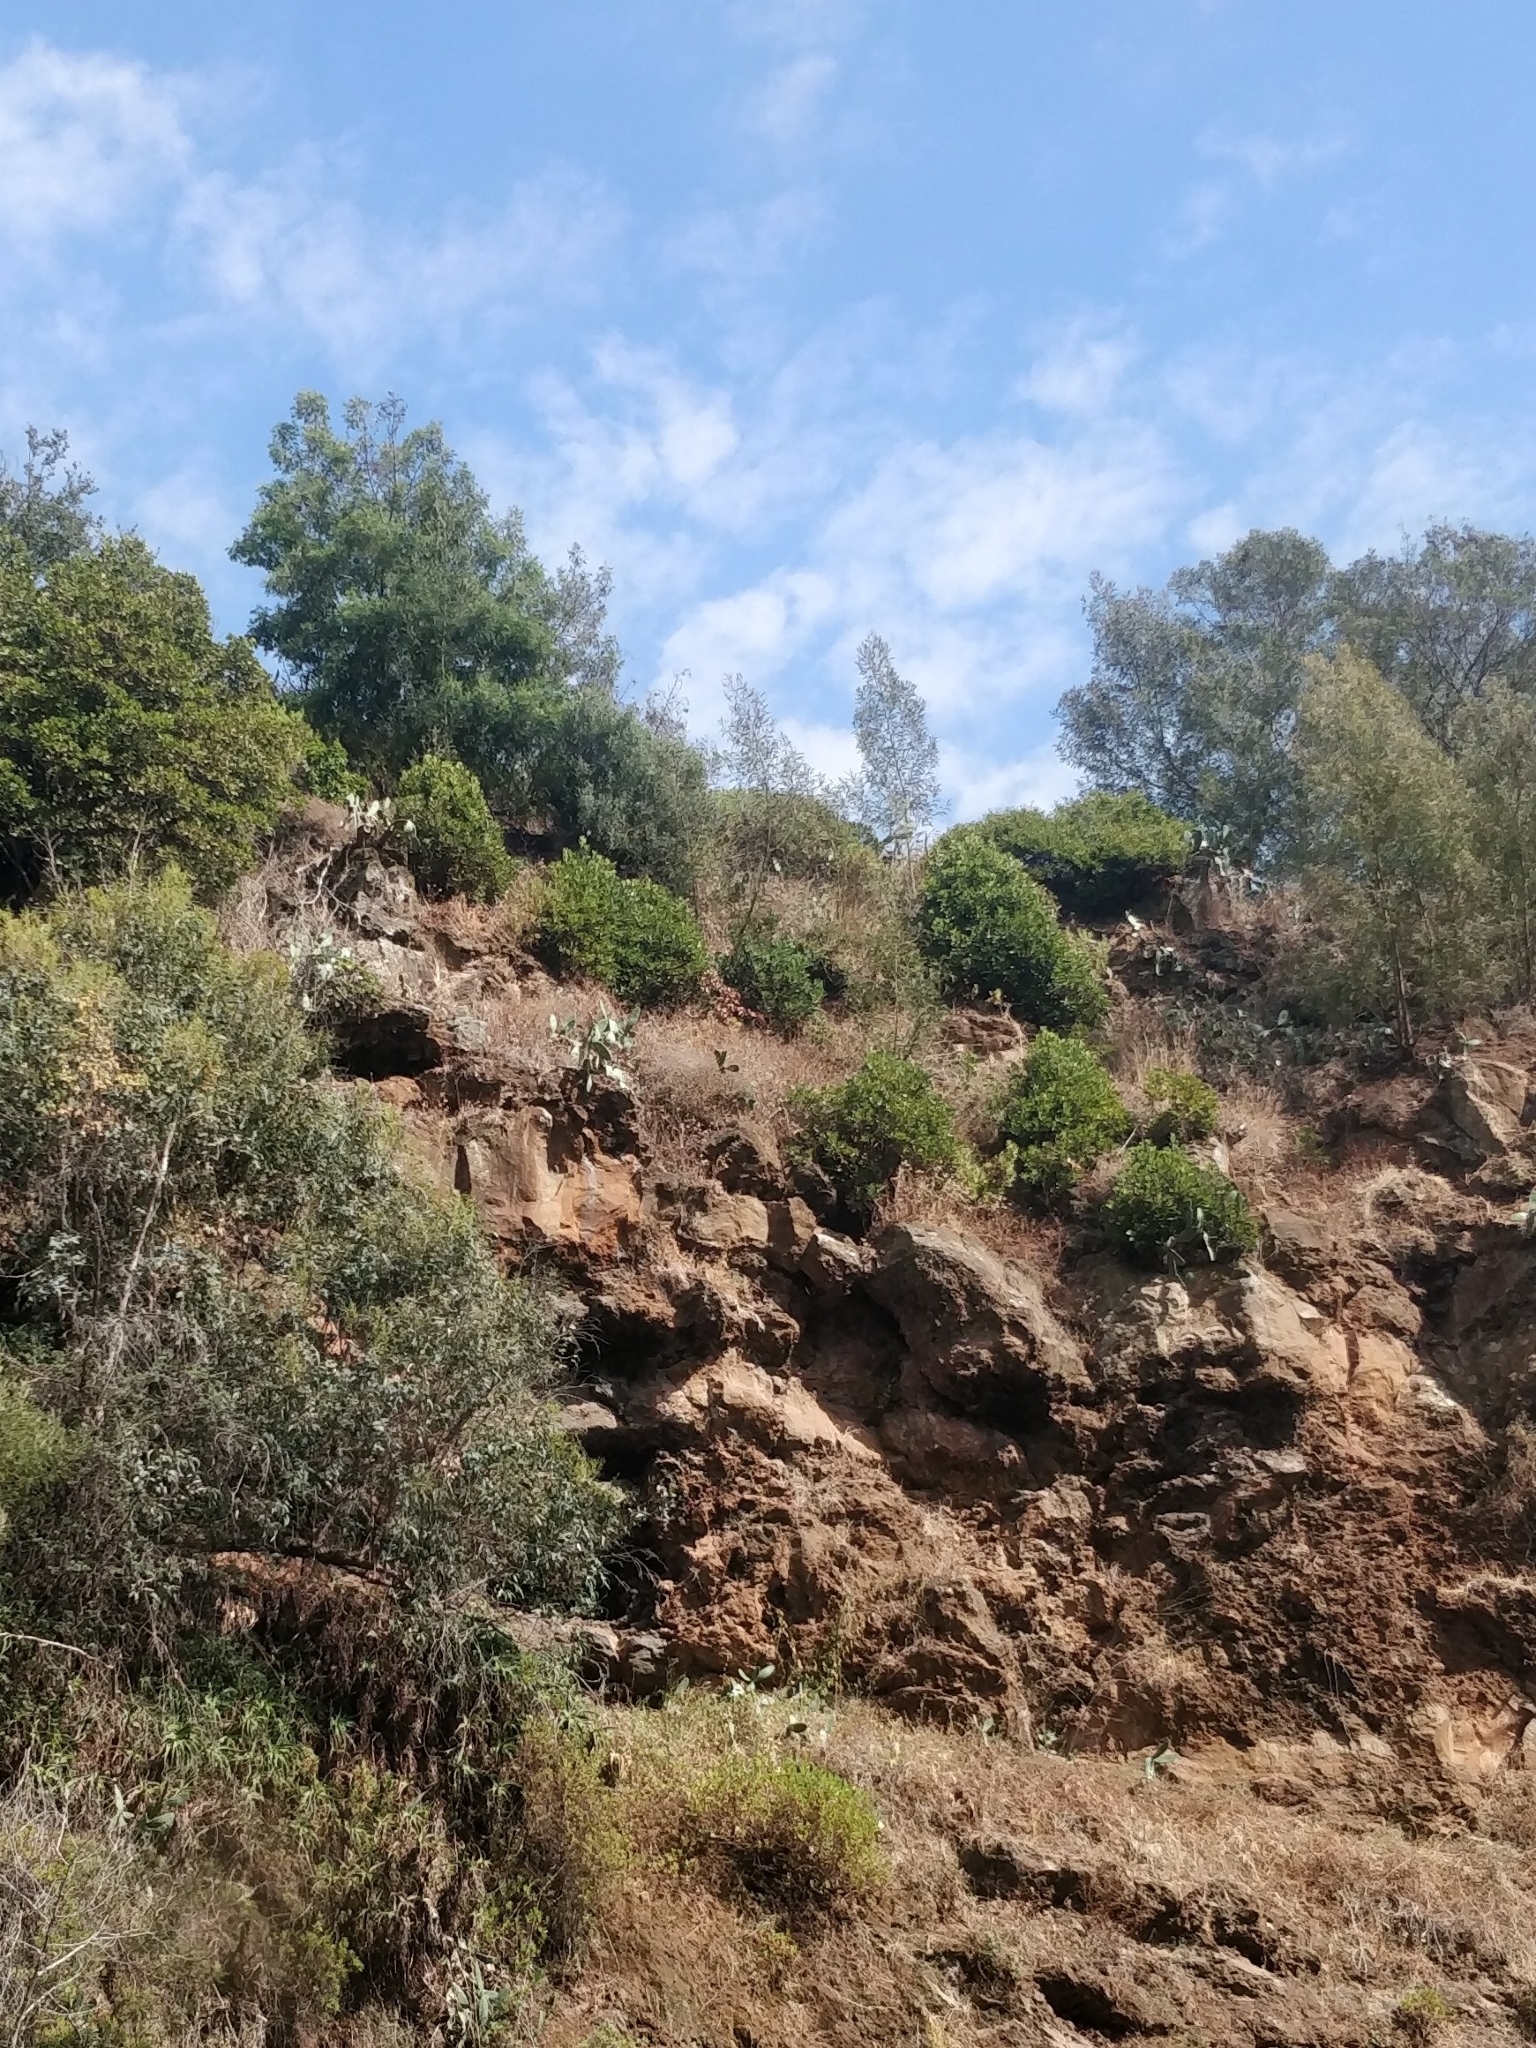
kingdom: Plantae
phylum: Tracheophyta
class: Magnoliopsida
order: Ericales
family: Sapotaceae
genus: Sideroxylon
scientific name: Sideroxylon mirmulans
